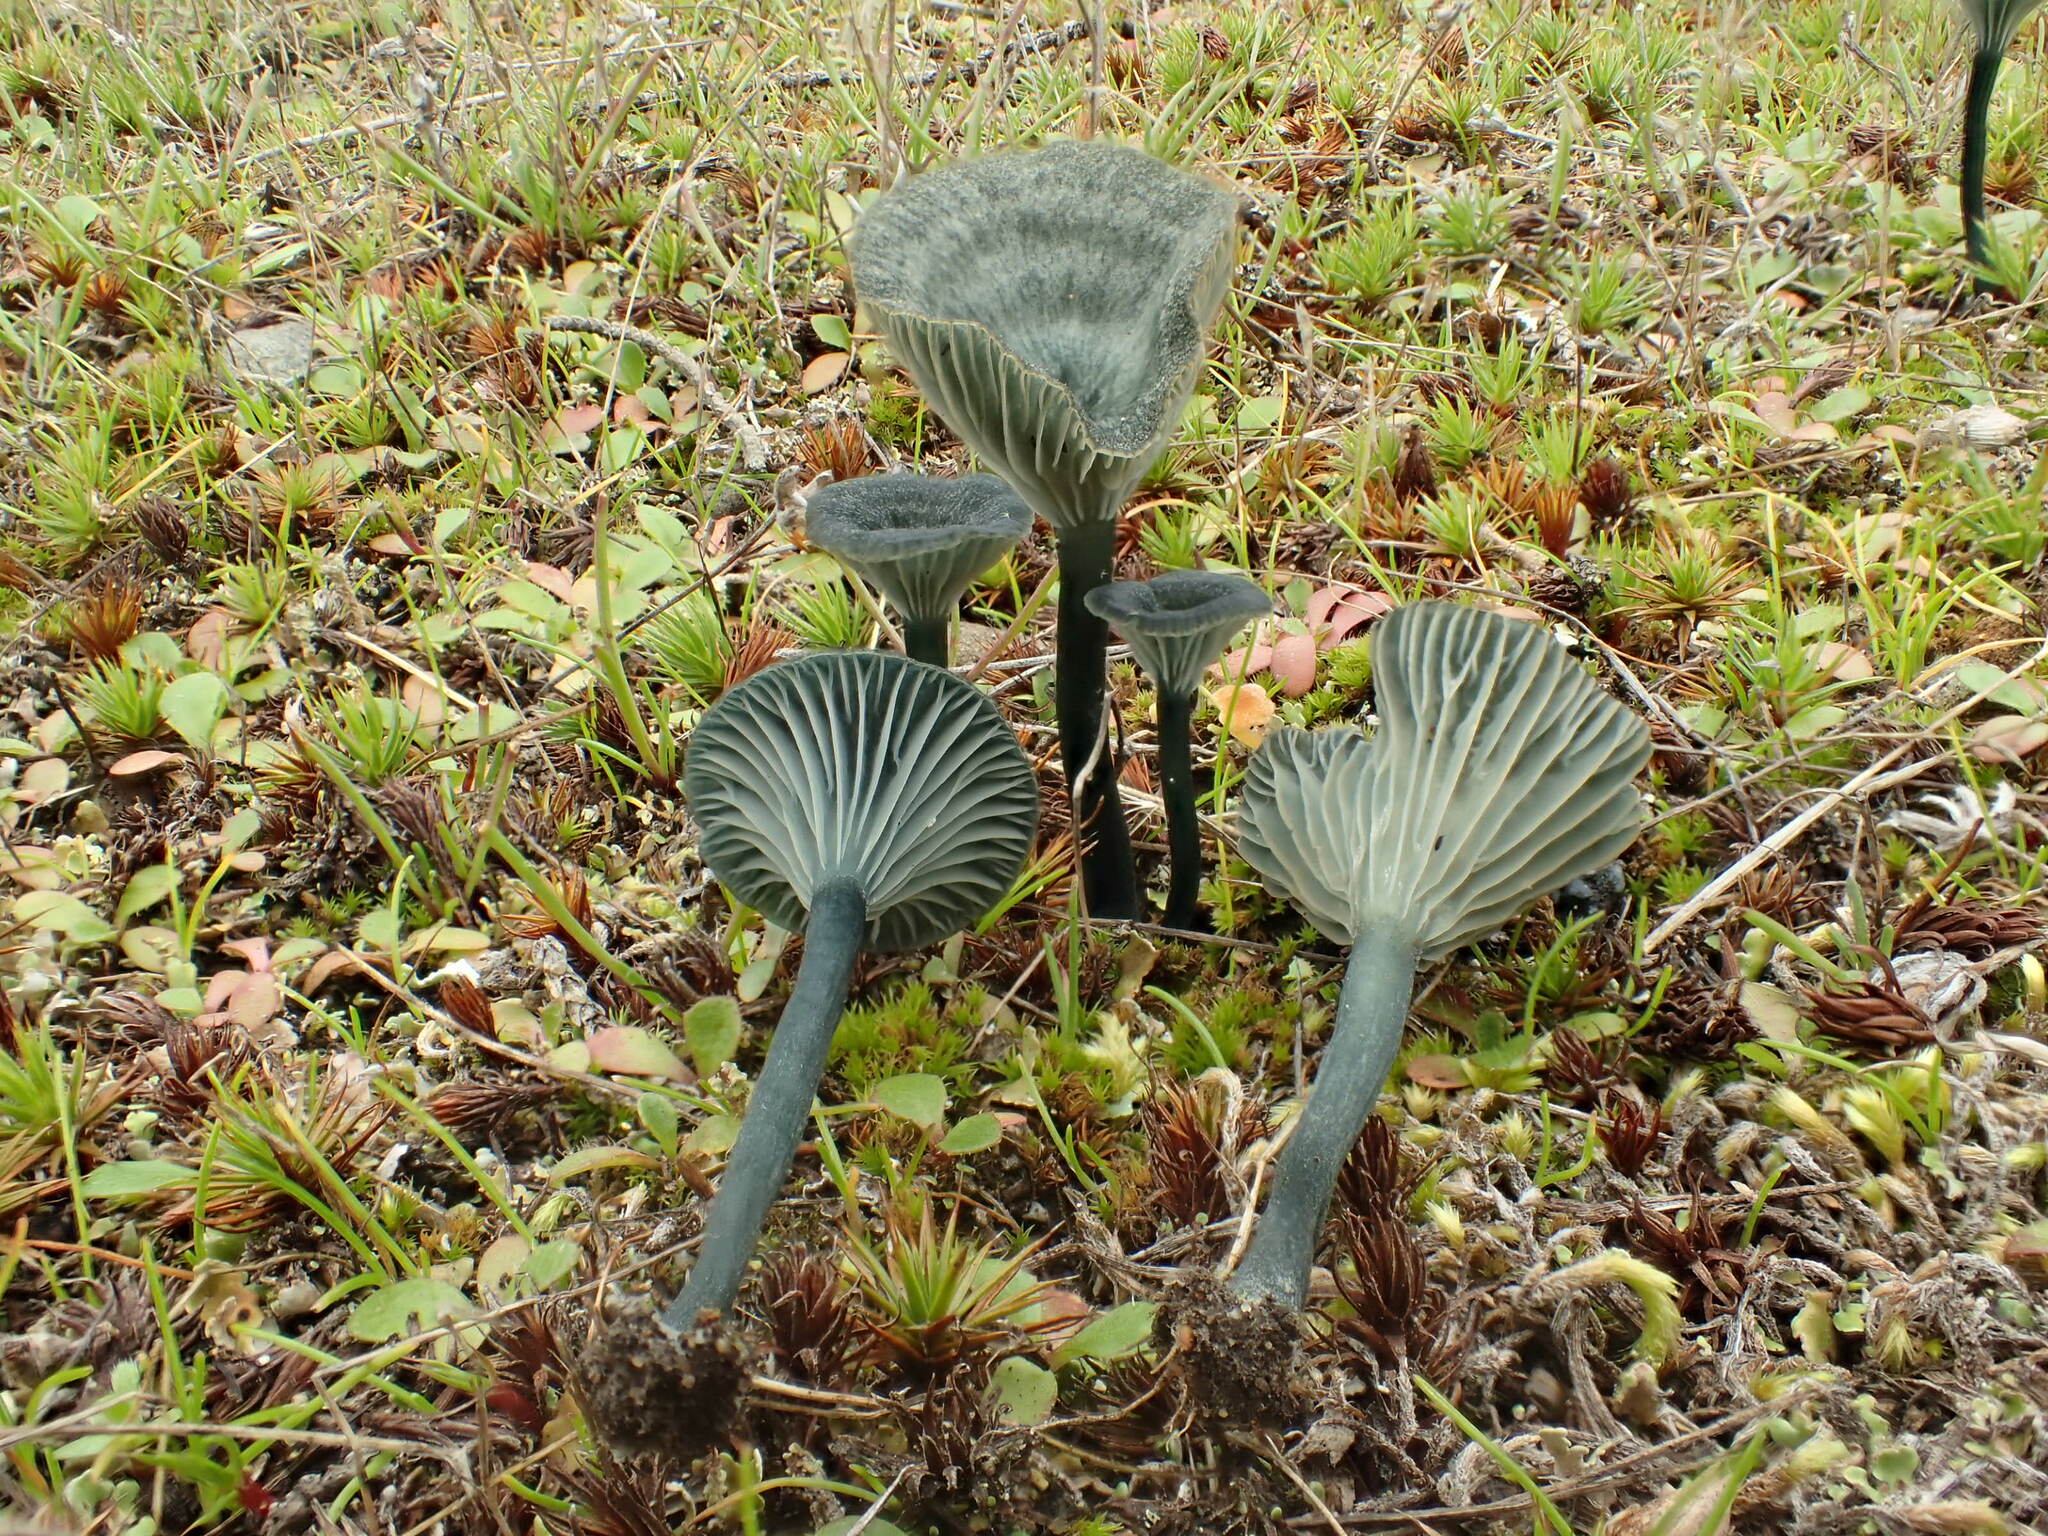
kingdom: Fungi
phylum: Basidiomycota
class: Agaricomycetes
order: Agaricales
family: Hygrophoraceae
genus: Arrhenia
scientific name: Arrhenia chlorocyanea
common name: Verdigris navel
